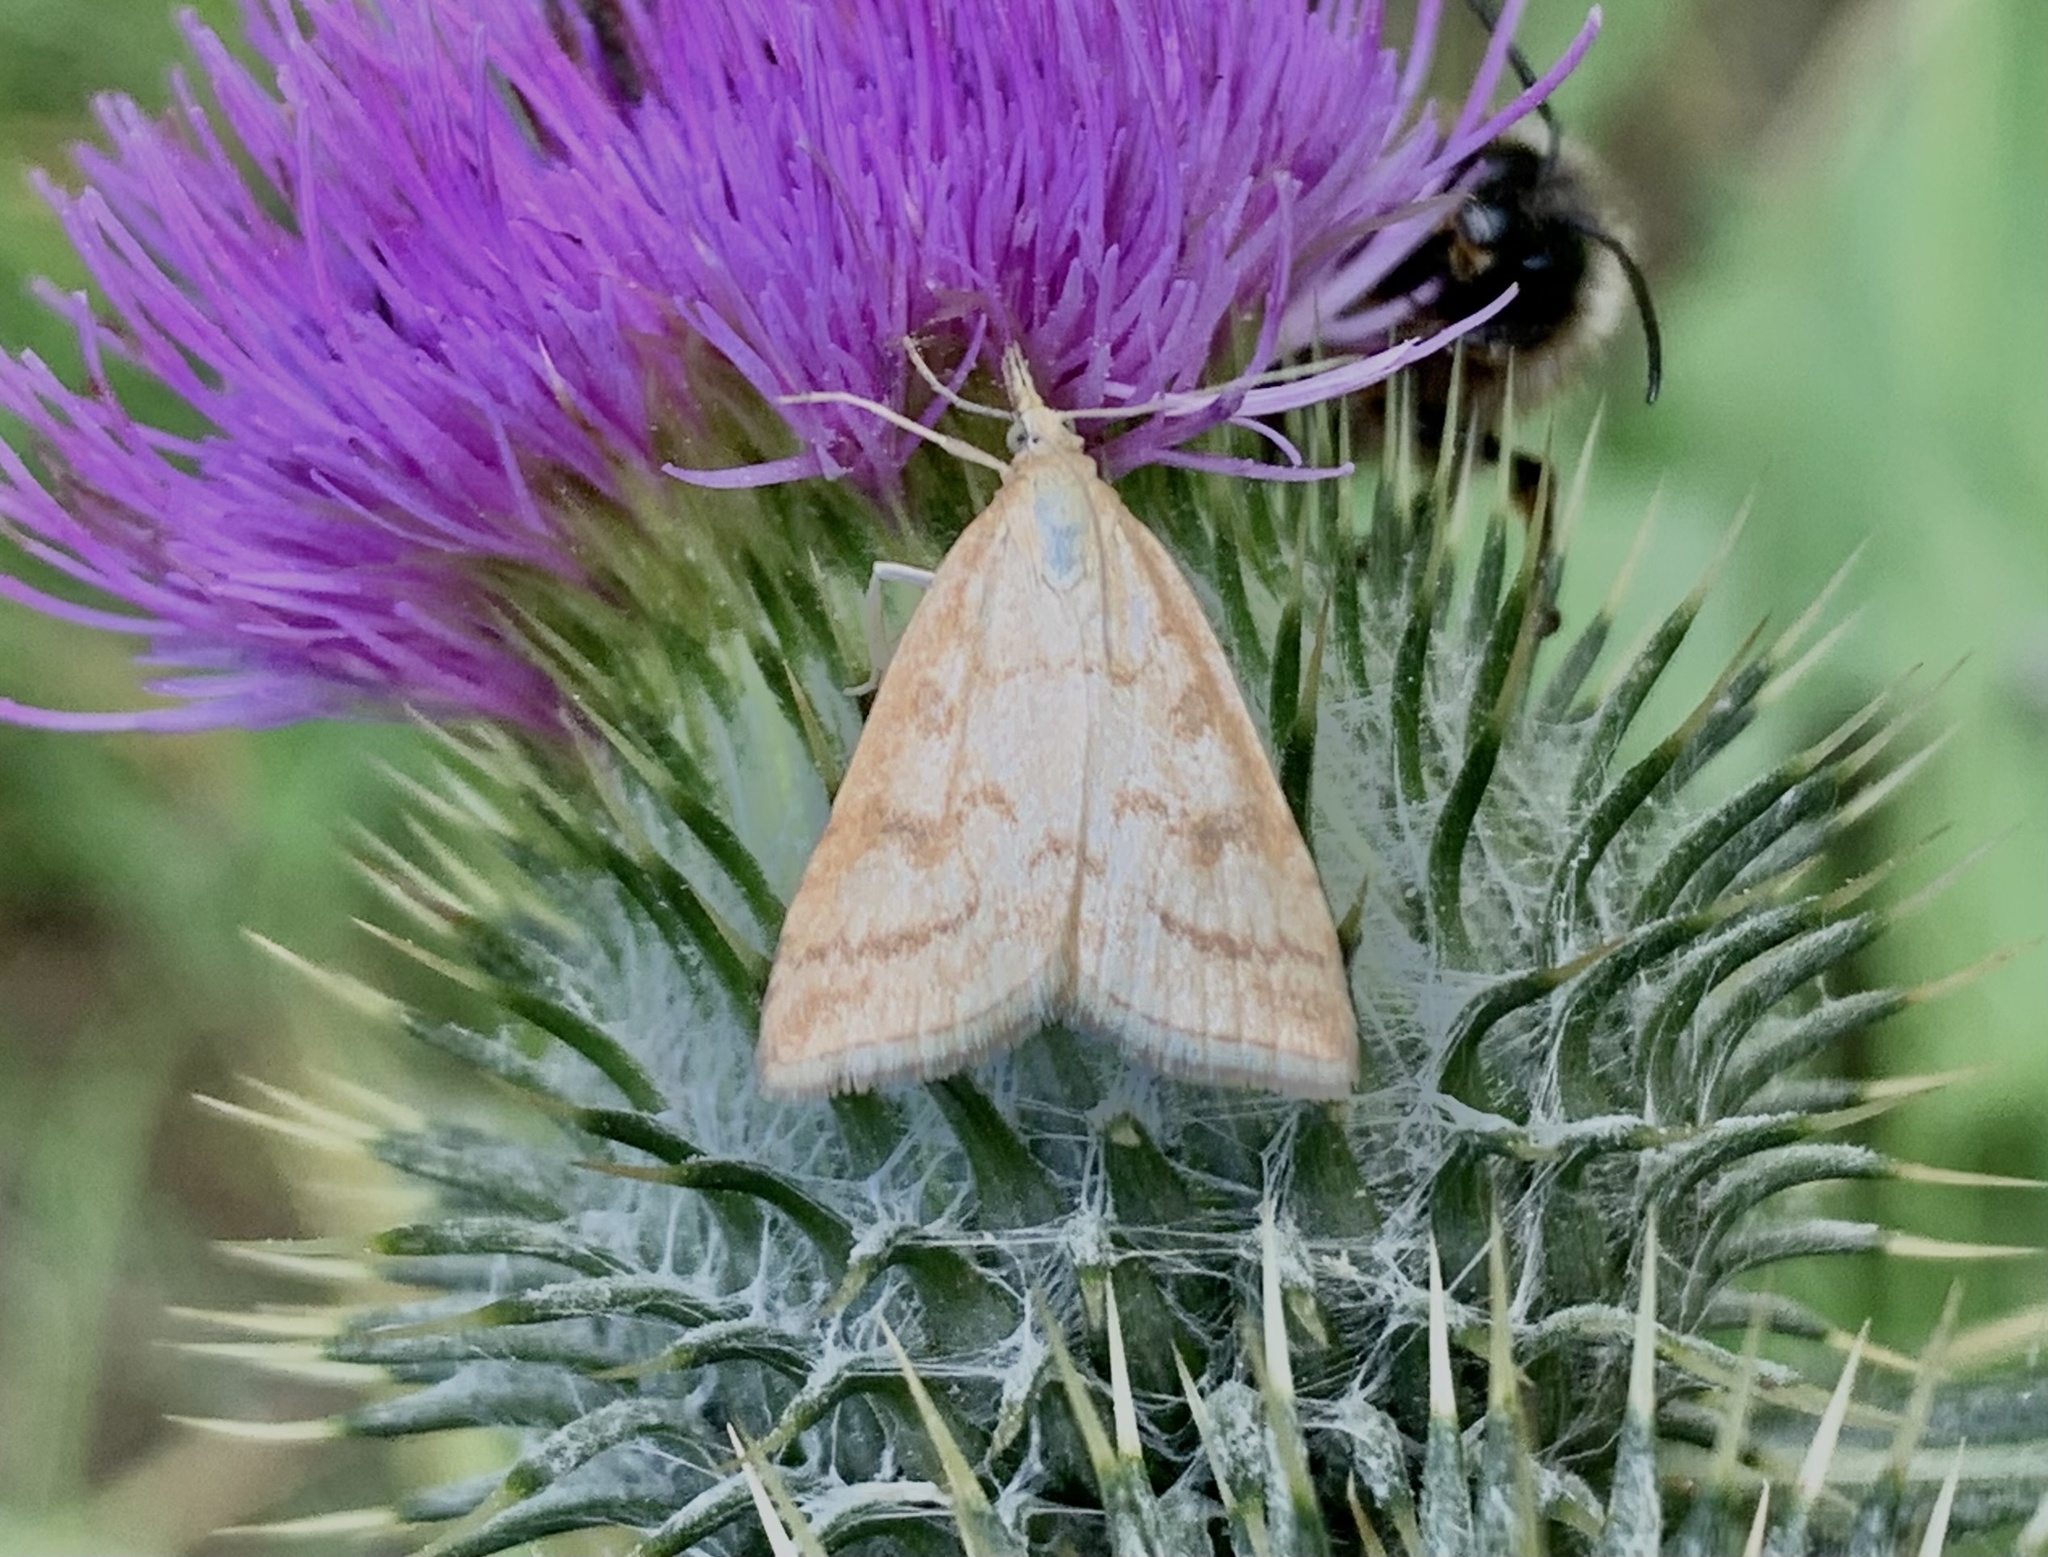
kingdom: Animalia
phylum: Arthropoda
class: Insecta
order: Lepidoptera
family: Crambidae
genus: Udea
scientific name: Udea lutealis
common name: Pale straw pearl
